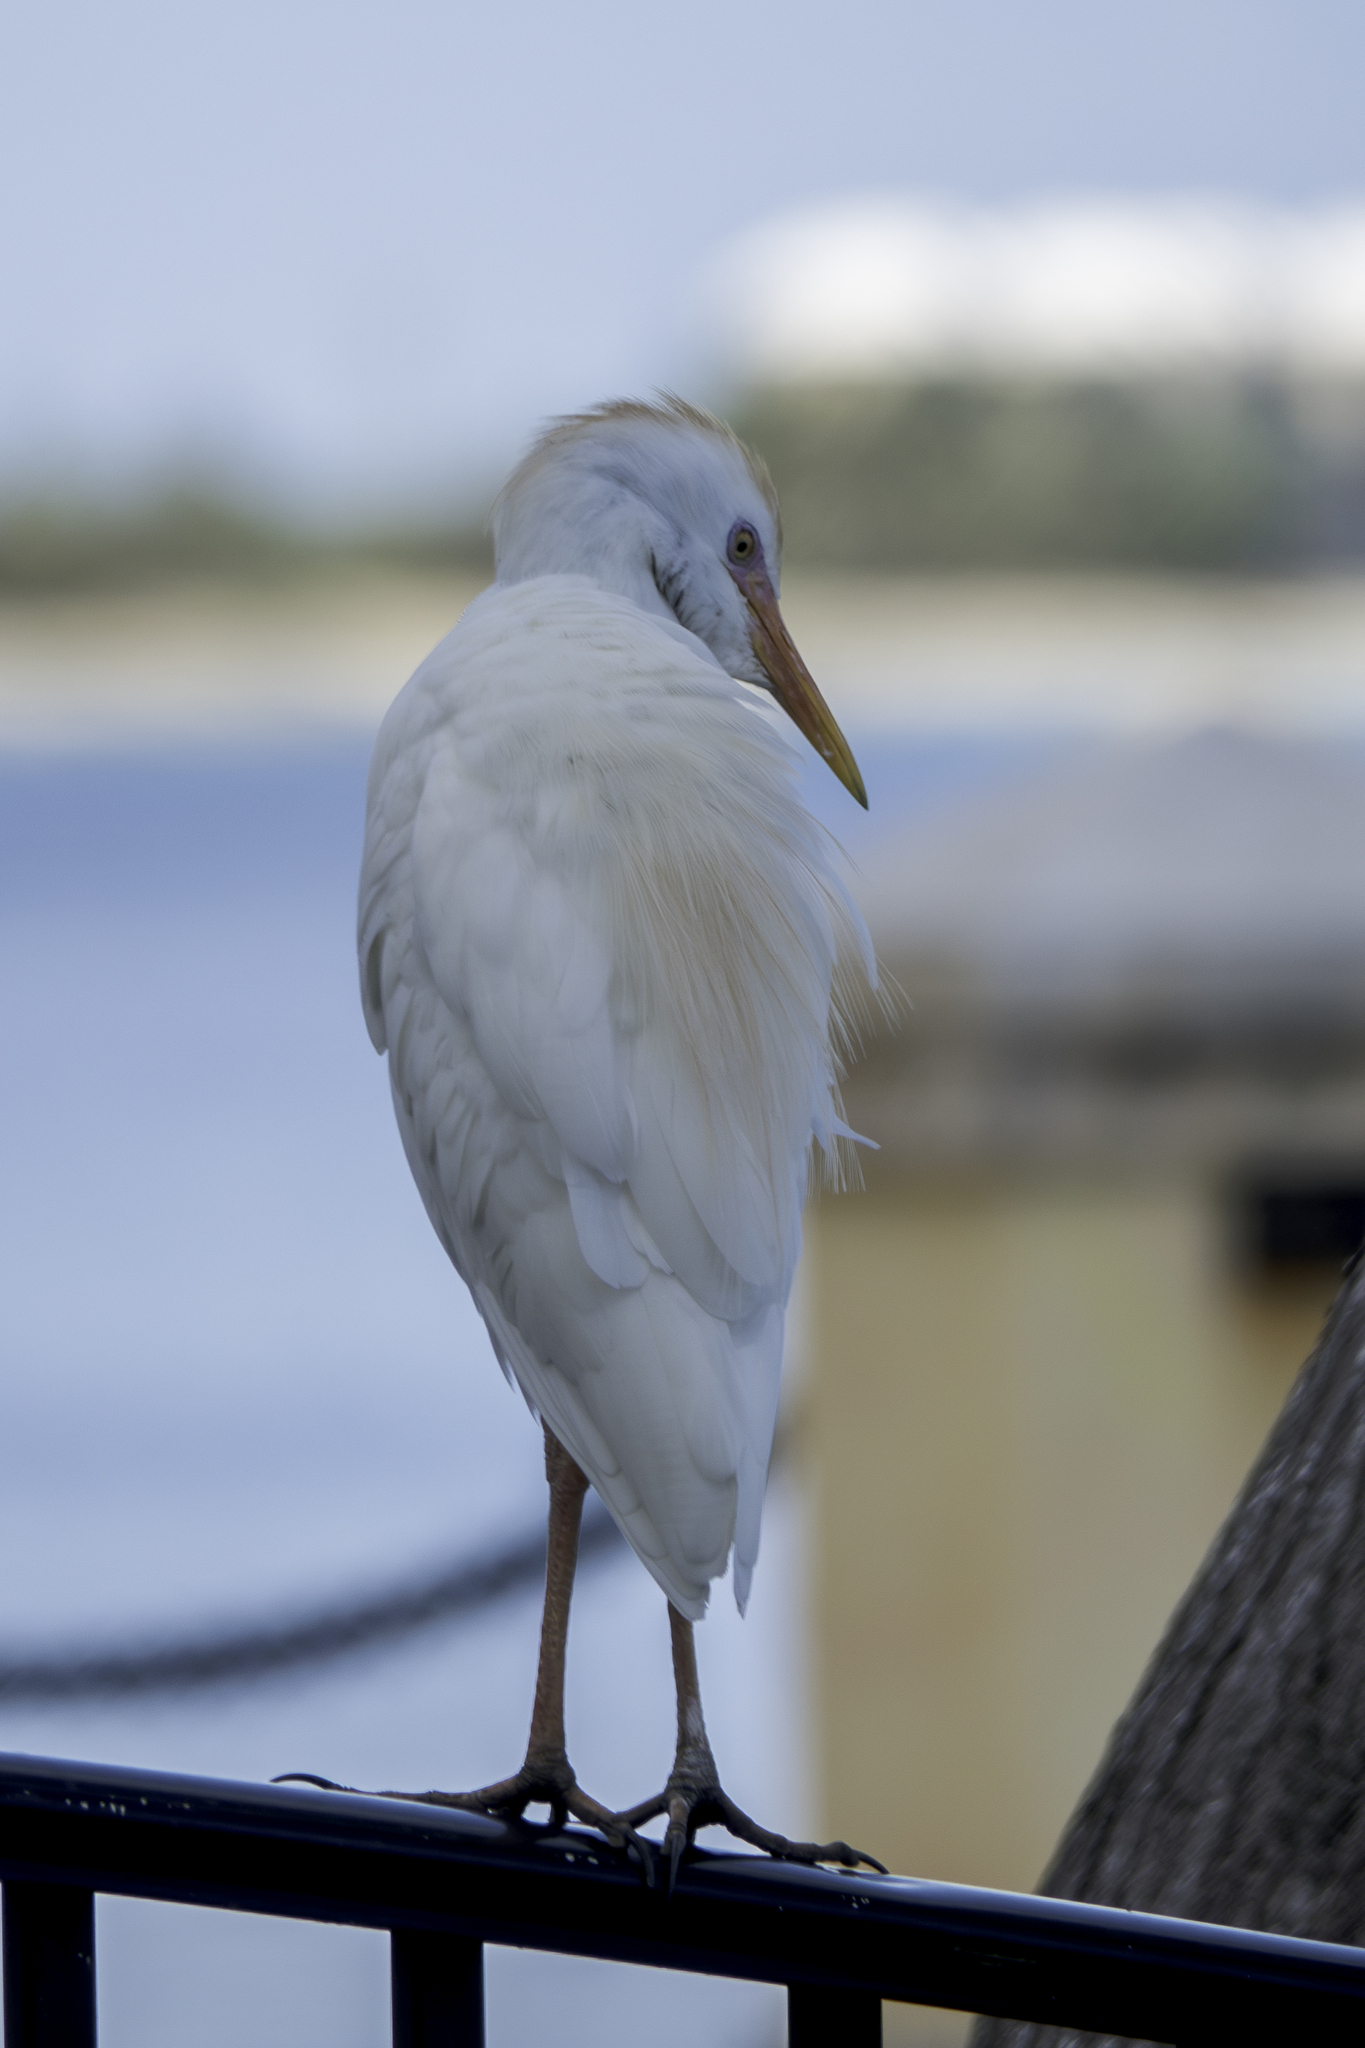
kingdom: Animalia
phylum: Chordata
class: Aves
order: Pelecaniformes
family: Ardeidae
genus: Bubulcus
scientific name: Bubulcus ibis
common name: Cattle egret
